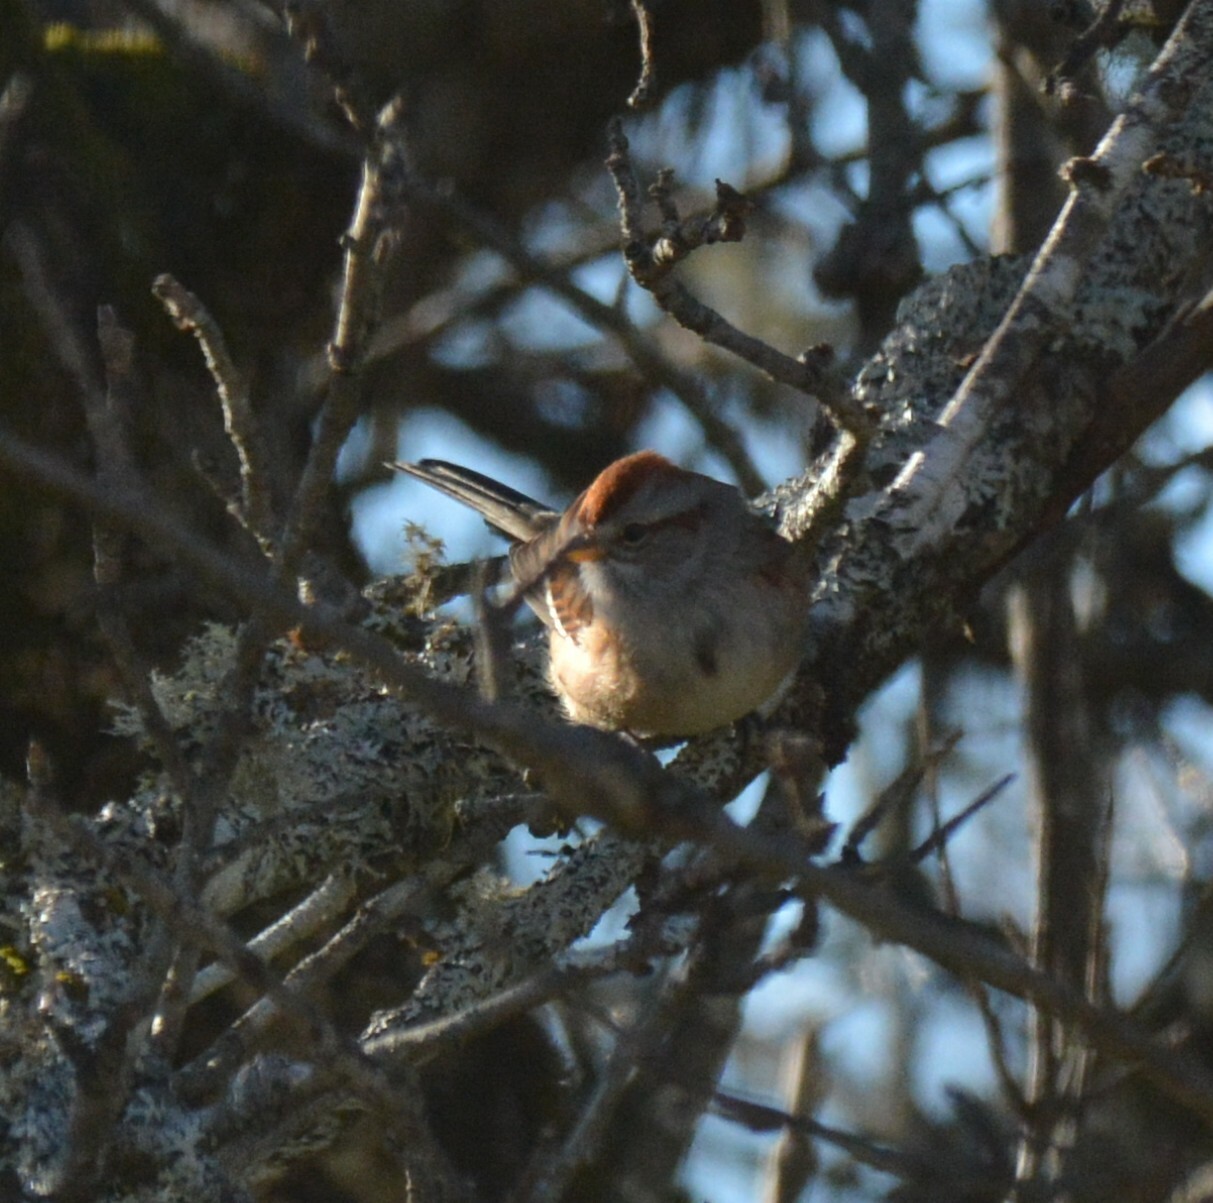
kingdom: Animalia
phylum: Chordata
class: Aves
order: Passeriformes
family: Passerellidae
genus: Spizelloides
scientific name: Spizelloides arborea
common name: American tree sparrow
